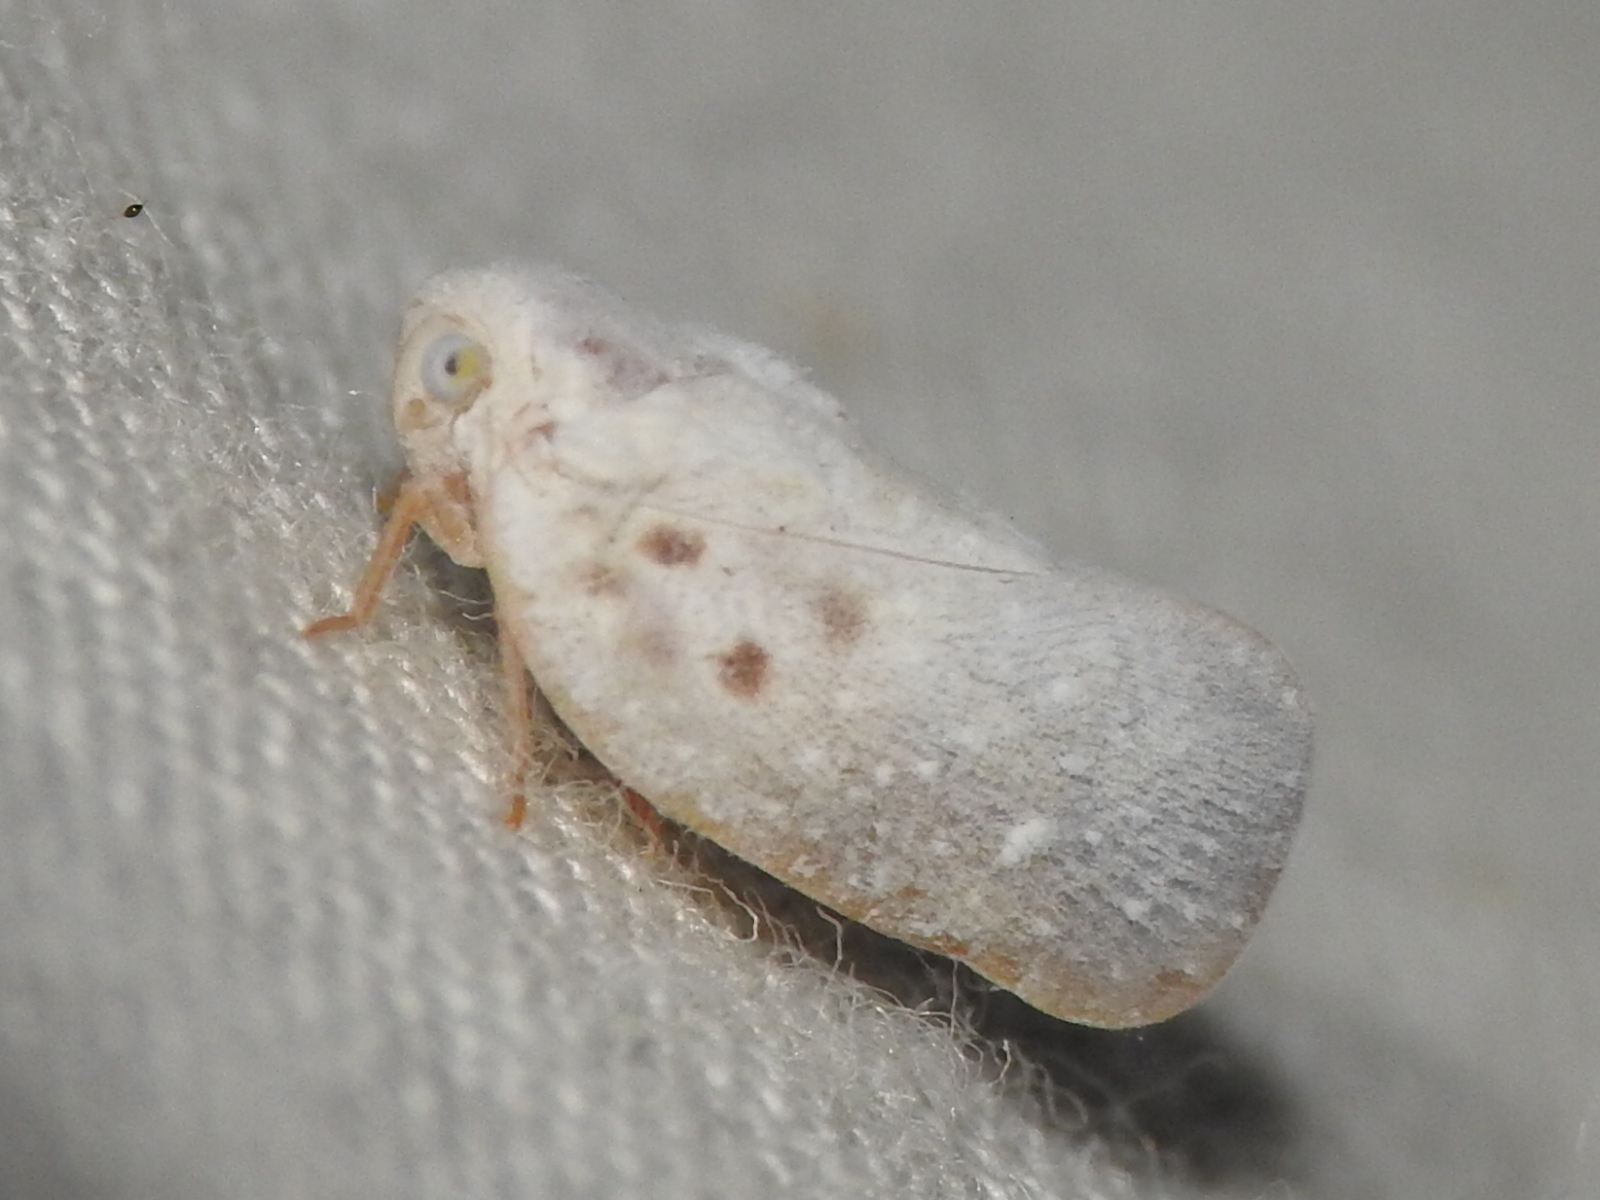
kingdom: Animalia
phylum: Arthropoda
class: Insecta
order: Hemiptera
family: Flatidae
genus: Metcalfa
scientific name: Metcalfa pruinosa
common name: Citrus flatid planthopper
